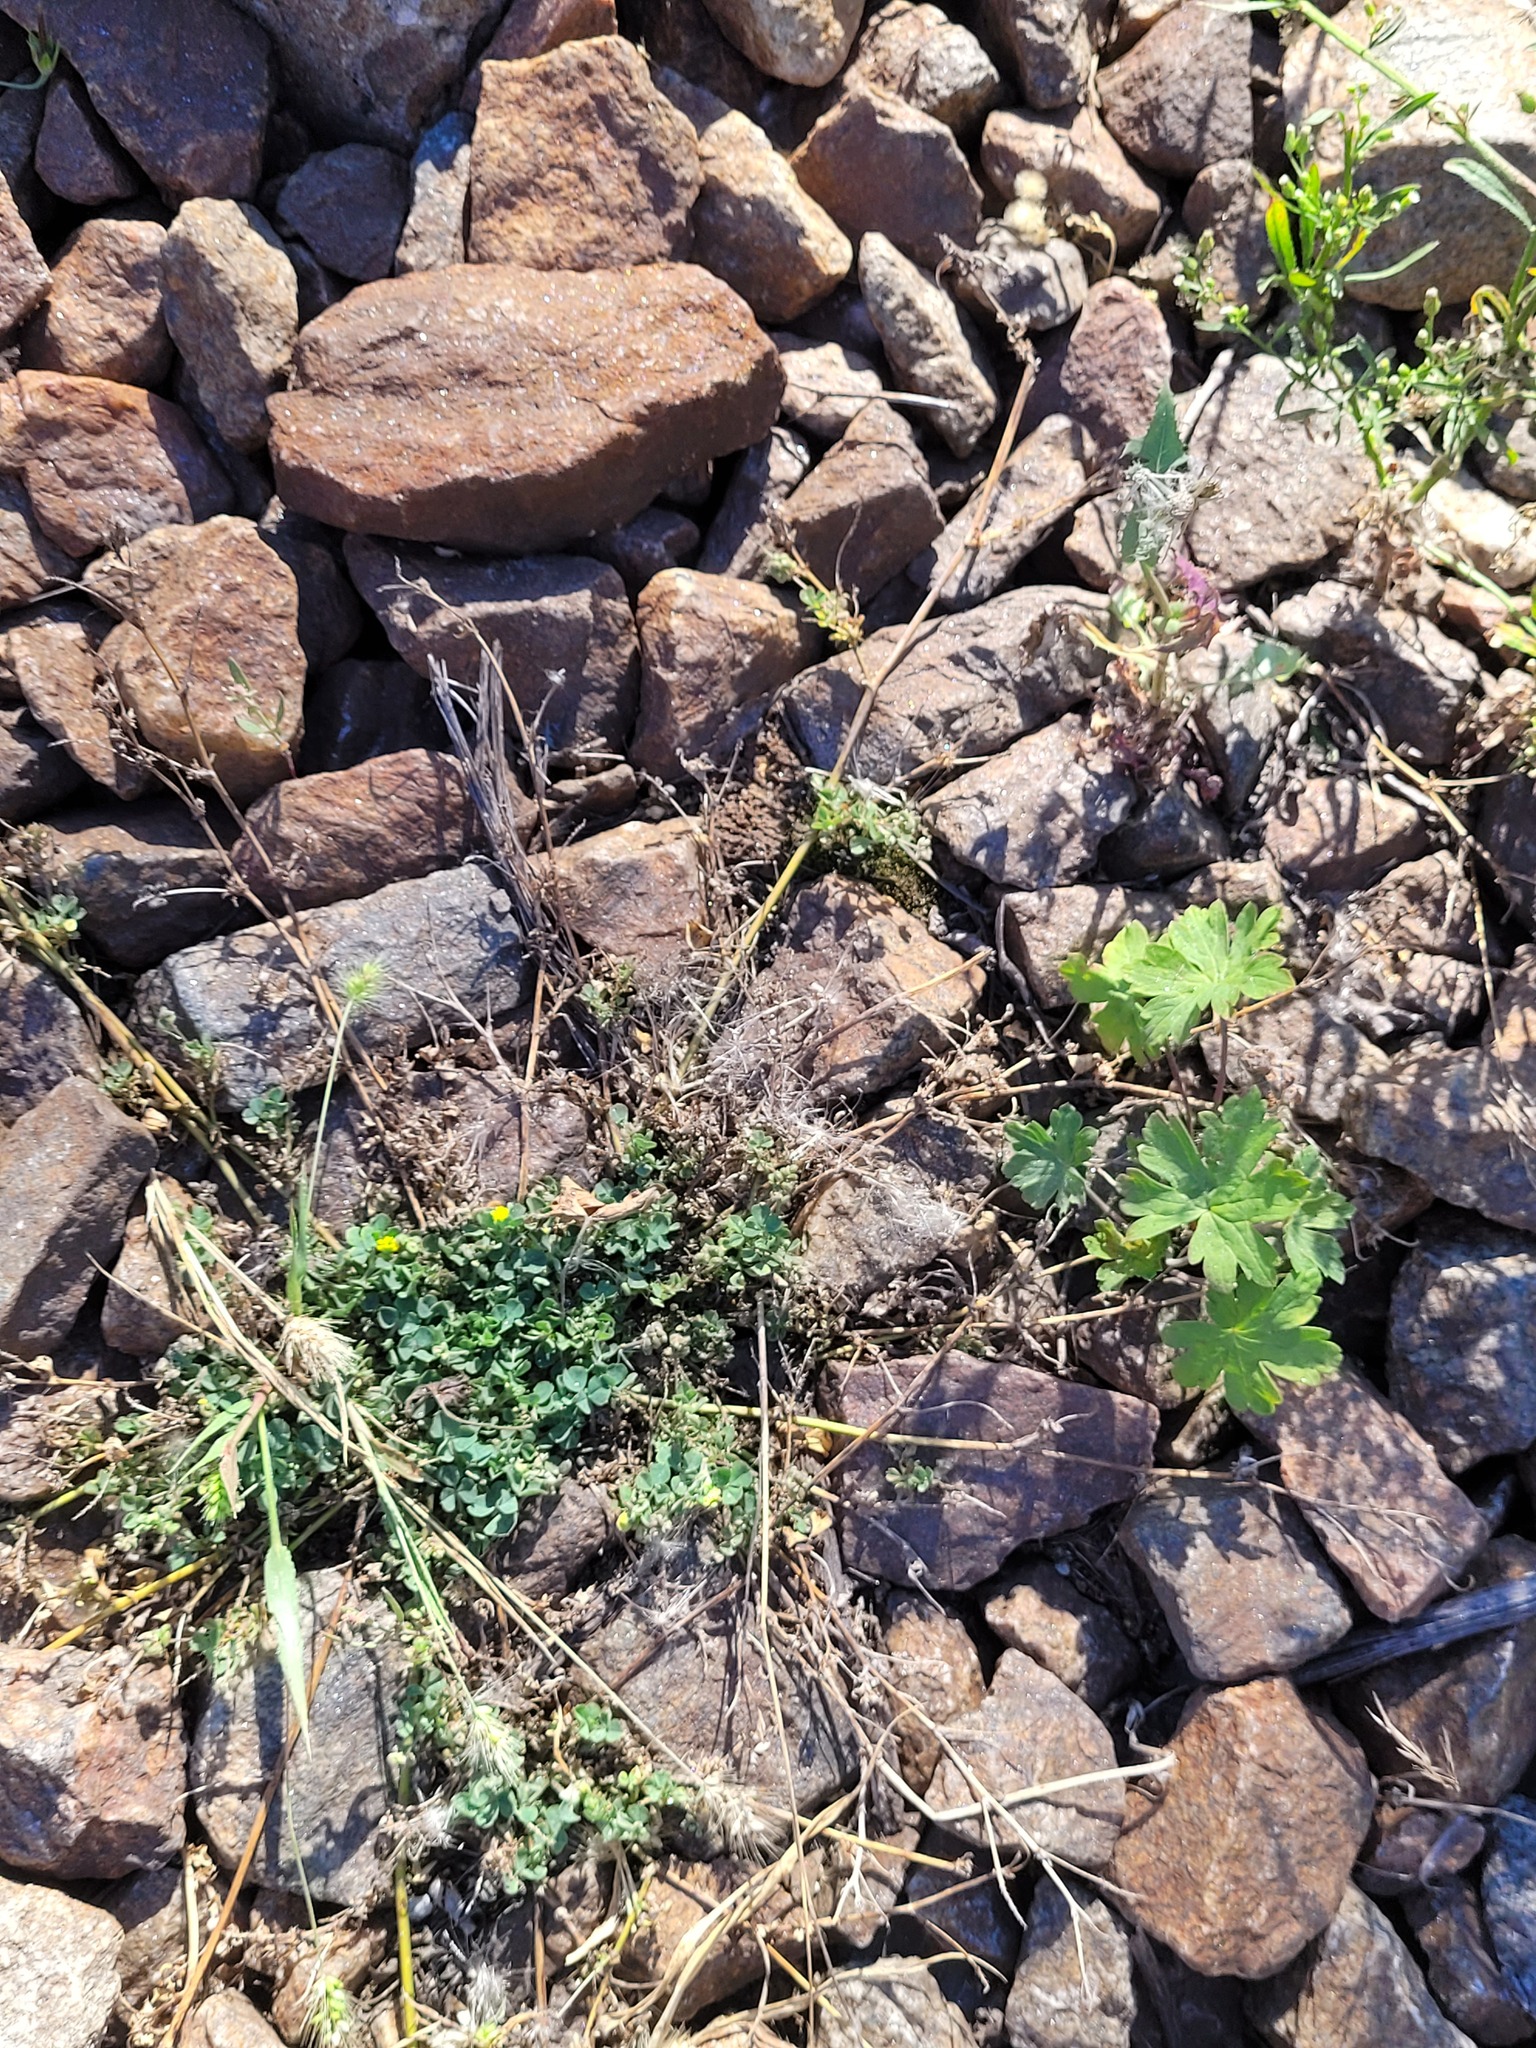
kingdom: Plantae
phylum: Tracheophyta
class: Magnoliopsida
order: Fabales
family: Fabaceae
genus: Medicago
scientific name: Medicago lupulina
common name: Black medick
